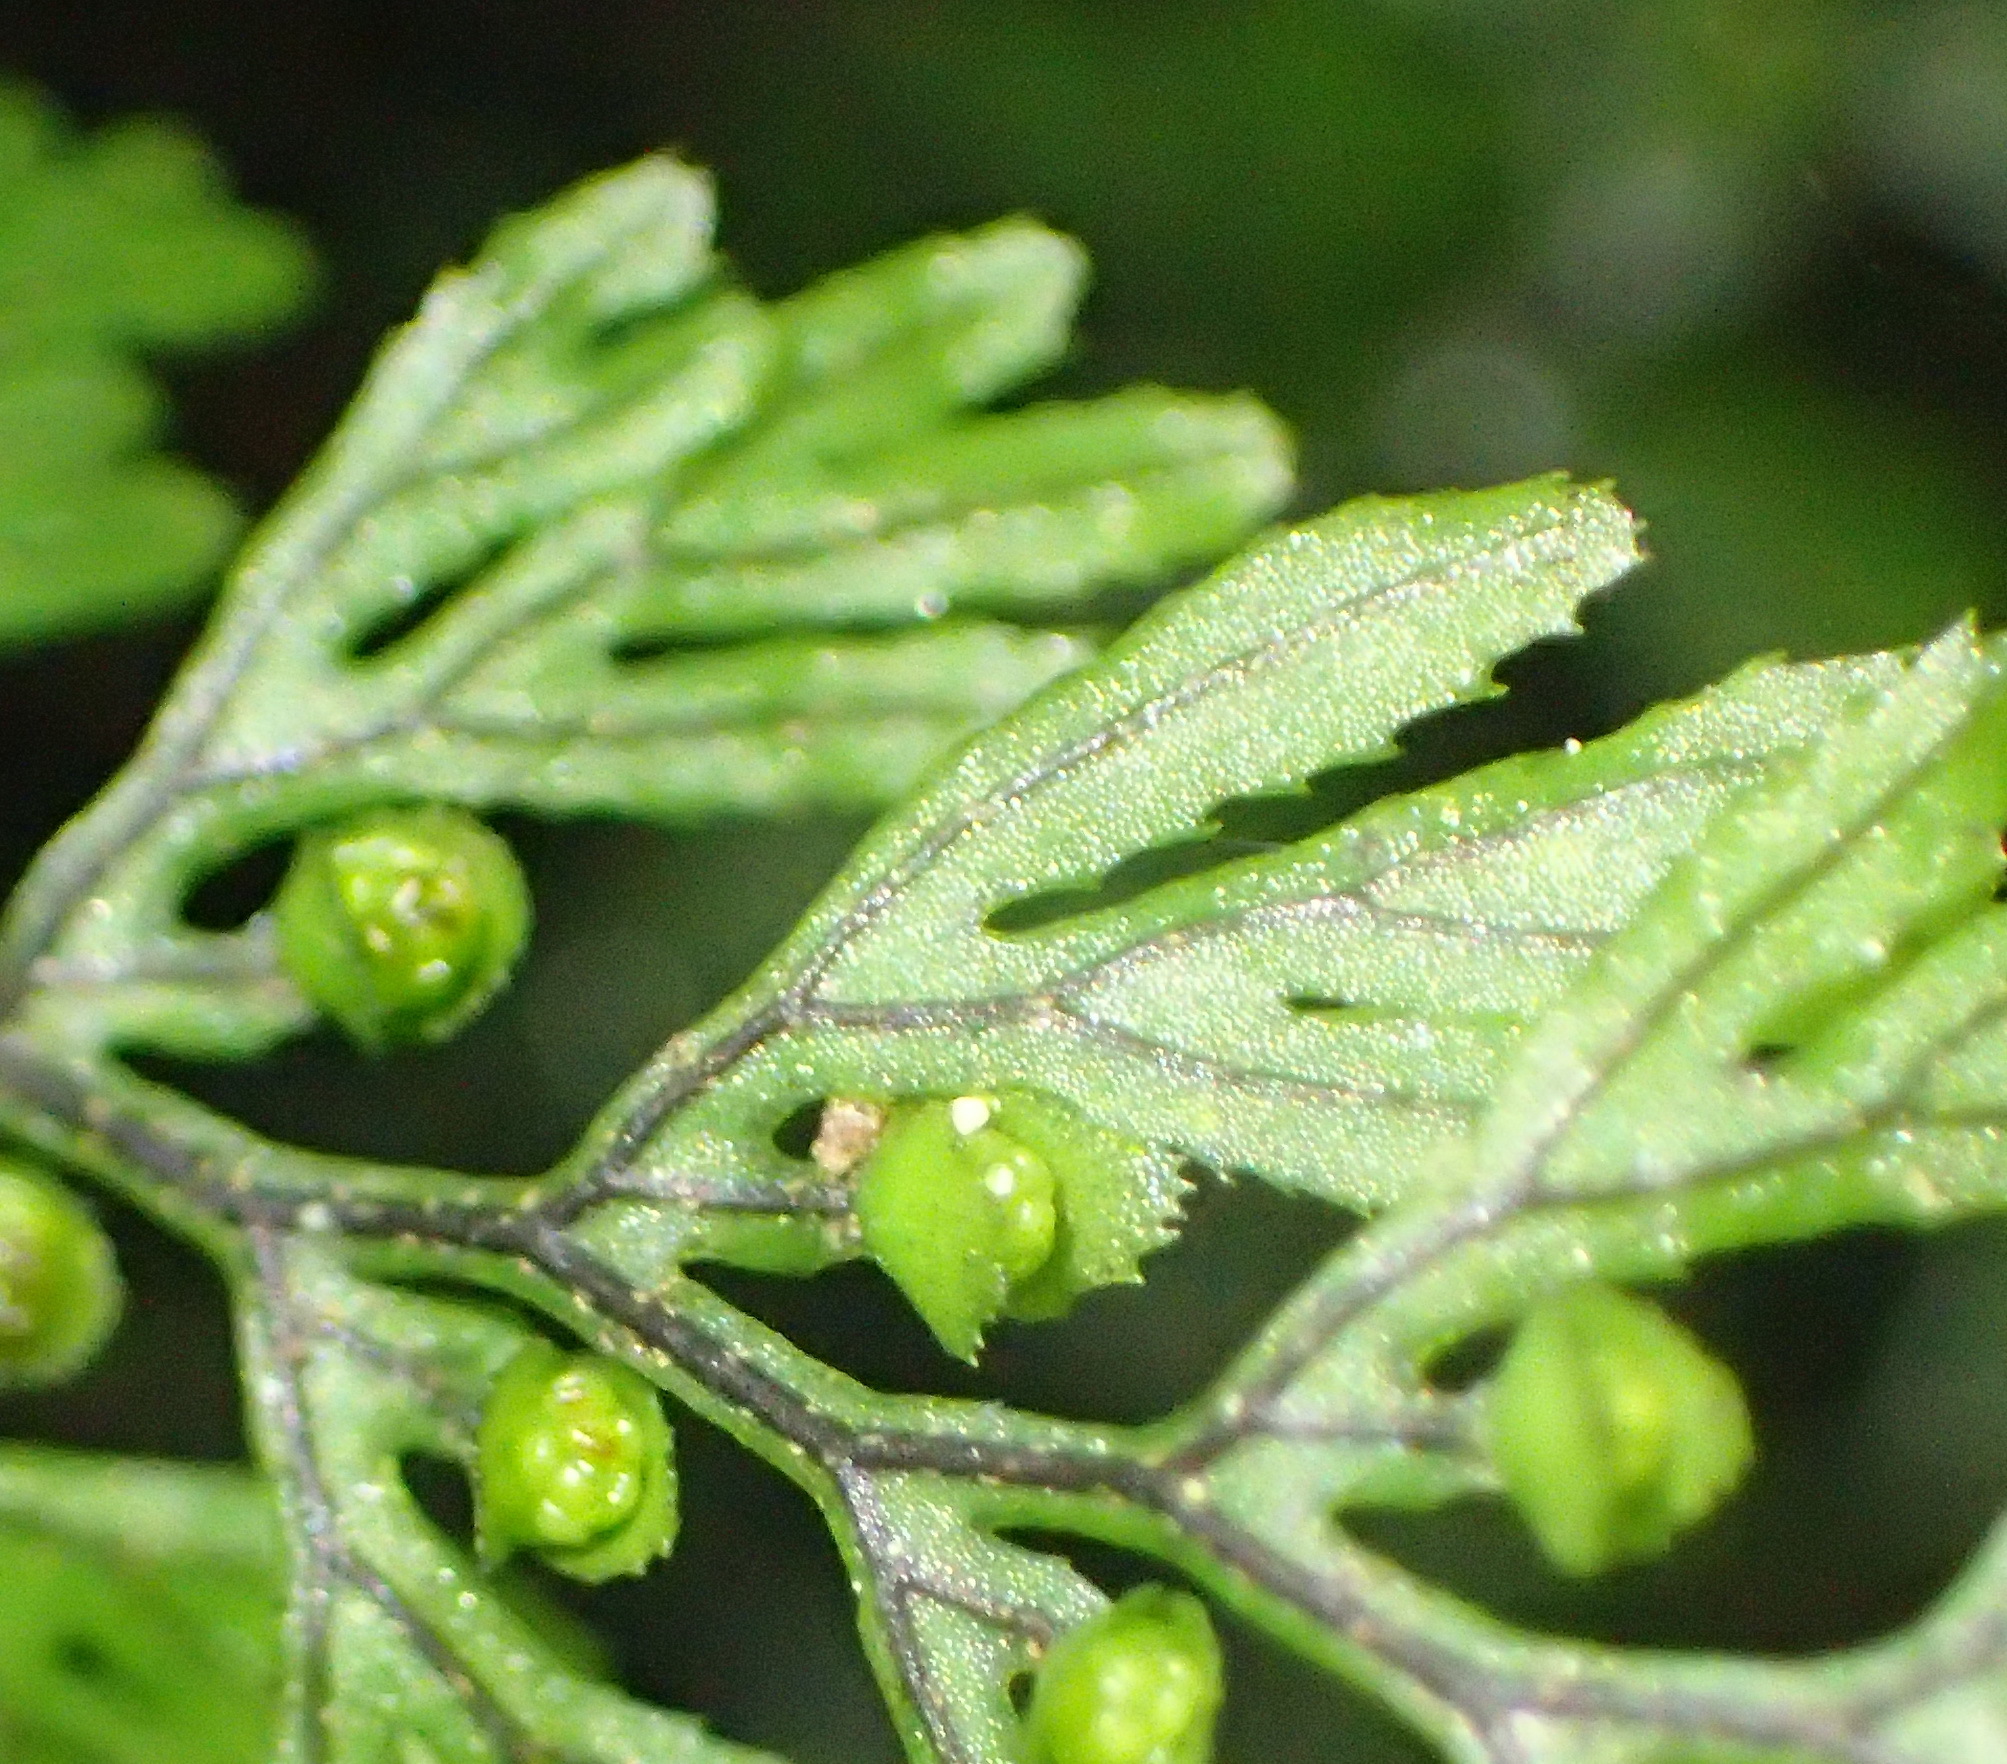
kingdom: Plantae
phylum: Tracheophyta
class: Polypodiopsida
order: Hymenophyllales
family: Hymenophyllaceae
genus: Hymenophyllum
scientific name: Hymenophyllum tunbrigense
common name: Tunbridge filmy fern
